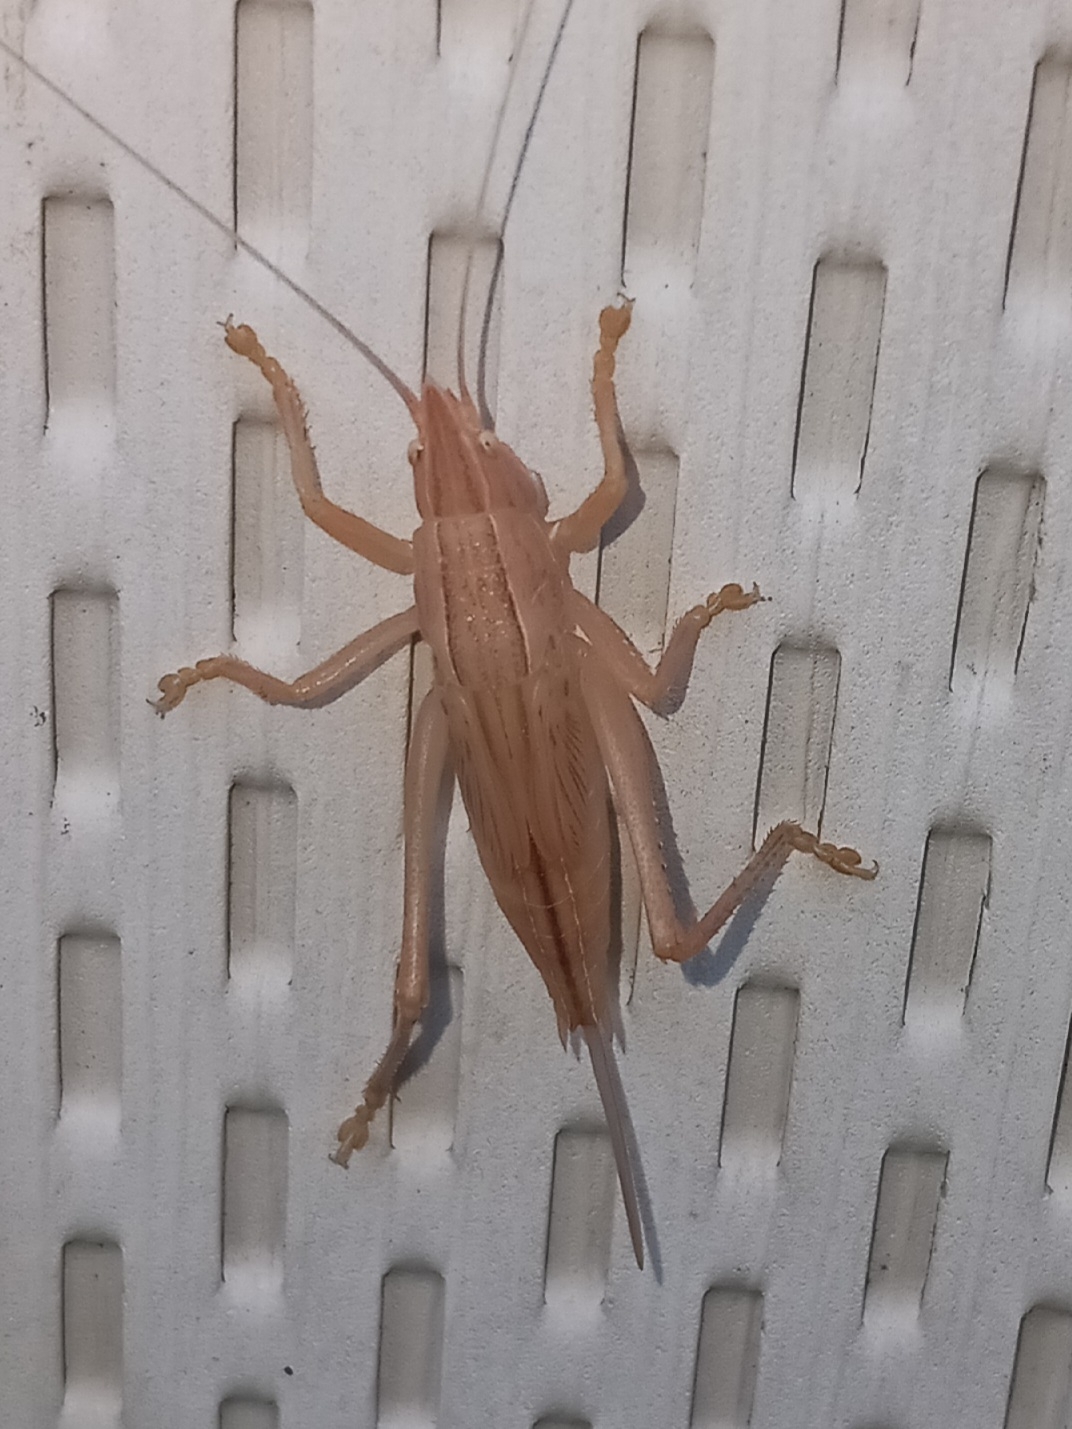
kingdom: Animalia
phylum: Arthropoda
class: Insecta
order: Orthoptera
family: Tettigoniidae
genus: Pyrgocorypha
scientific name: Pyrgocorypha uncinata
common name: Hook-faced conehead
